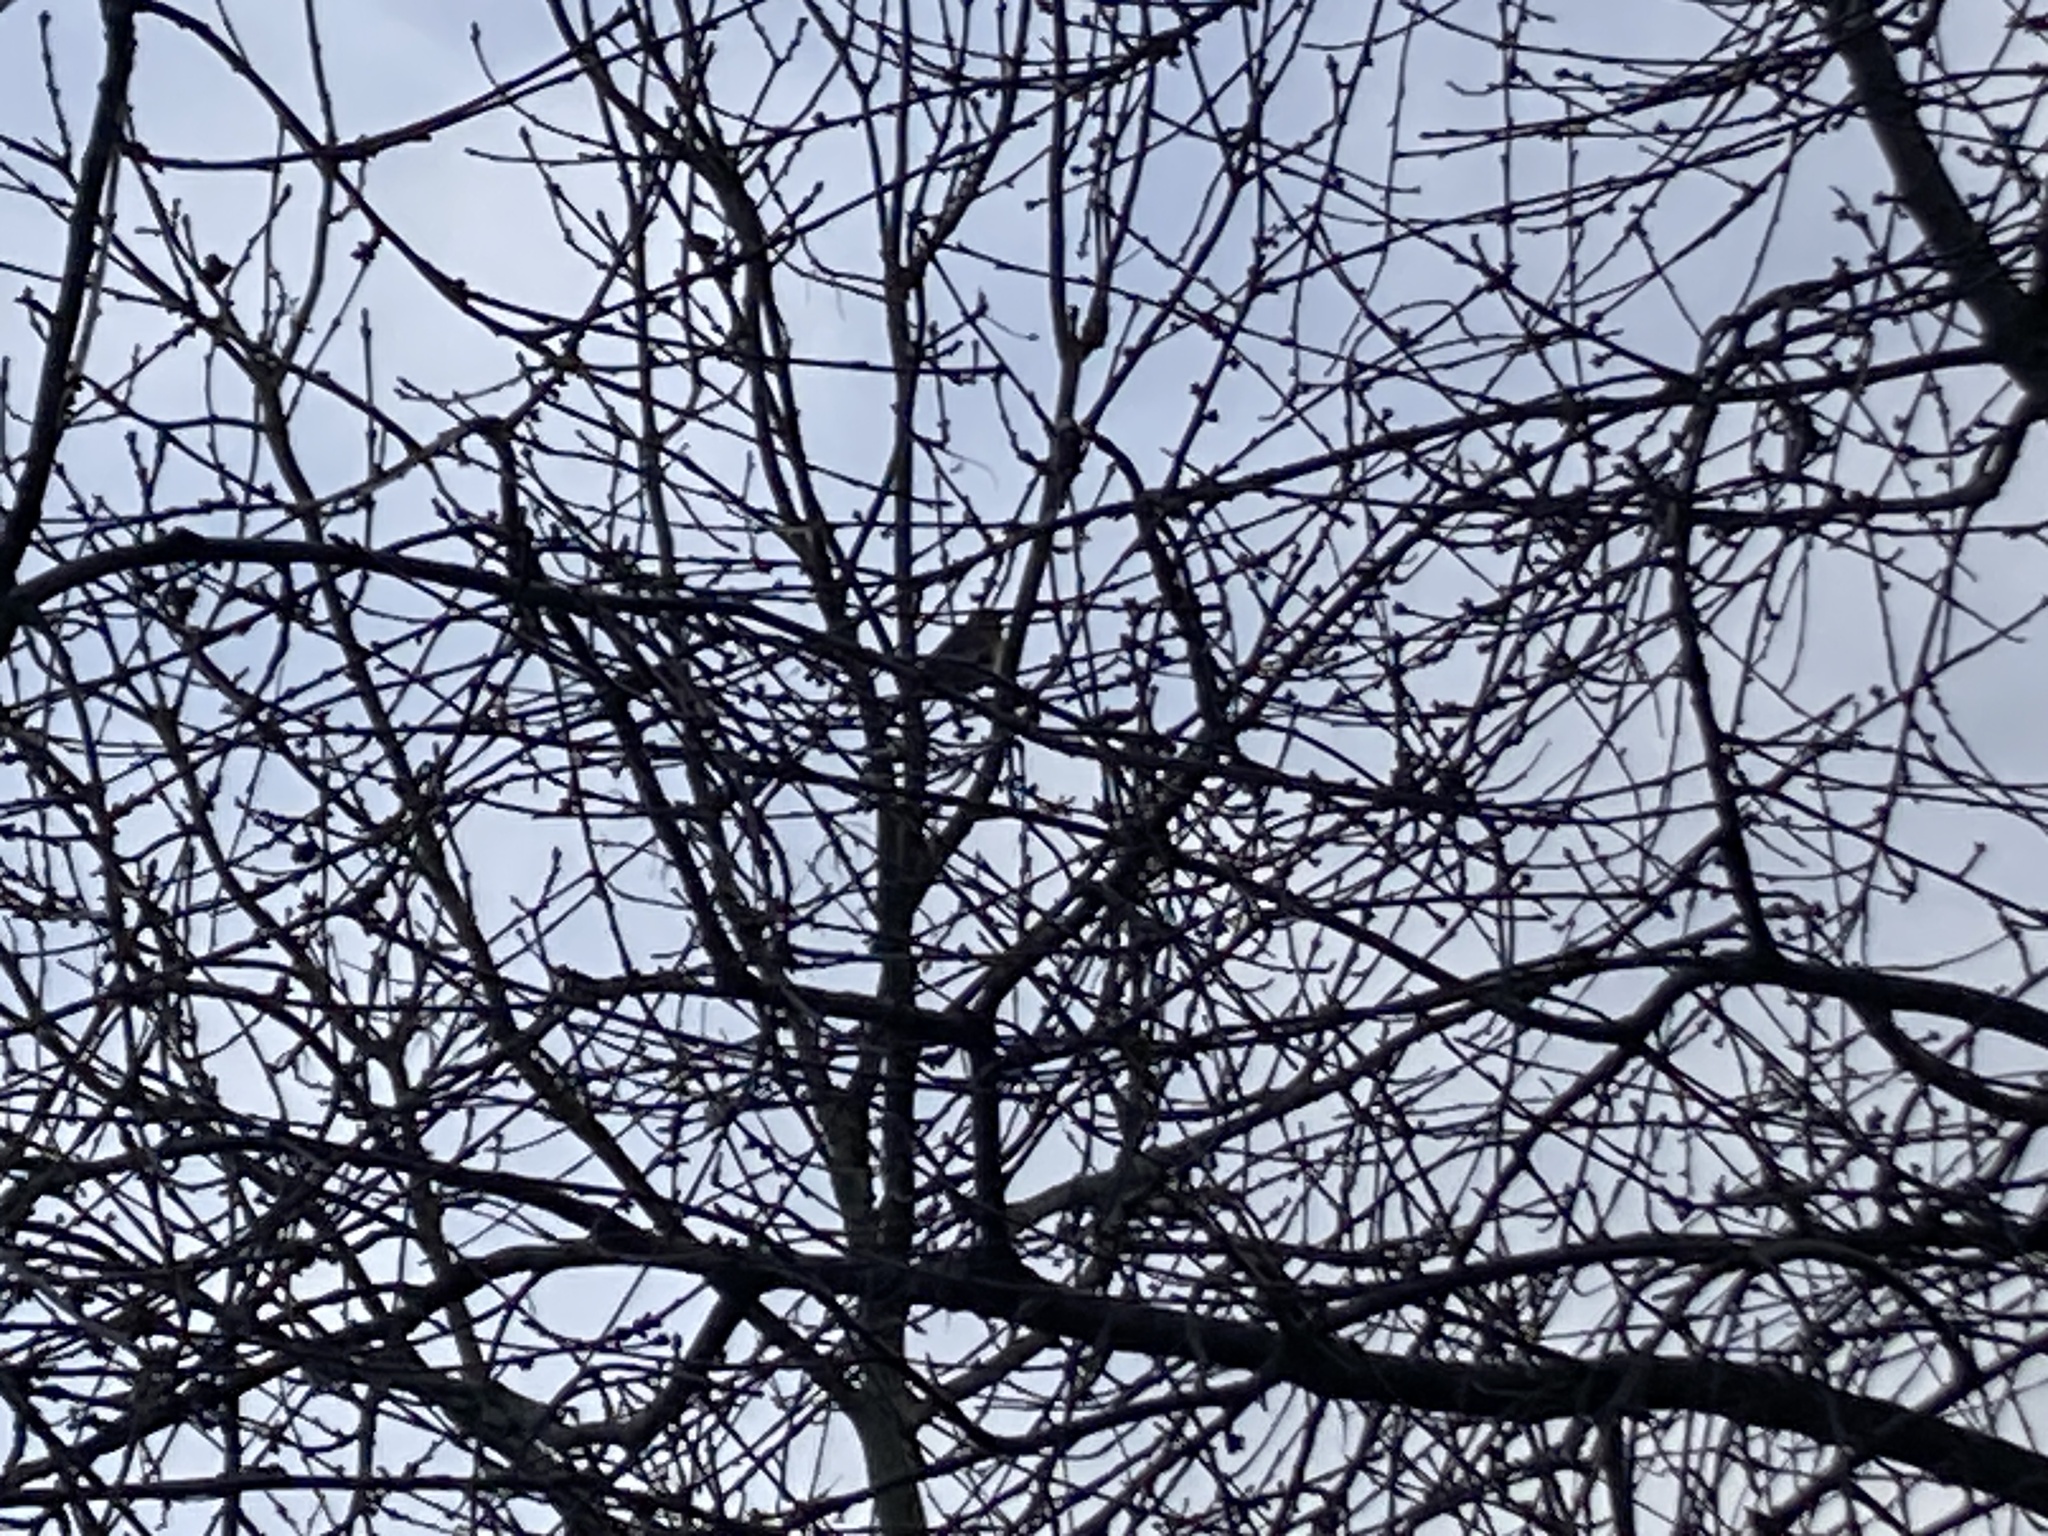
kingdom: Animalia
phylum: Chordata
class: Aves
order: Passeriformes
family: Turdidae
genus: Turdus
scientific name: Turdus philomelos
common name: Song thrush
